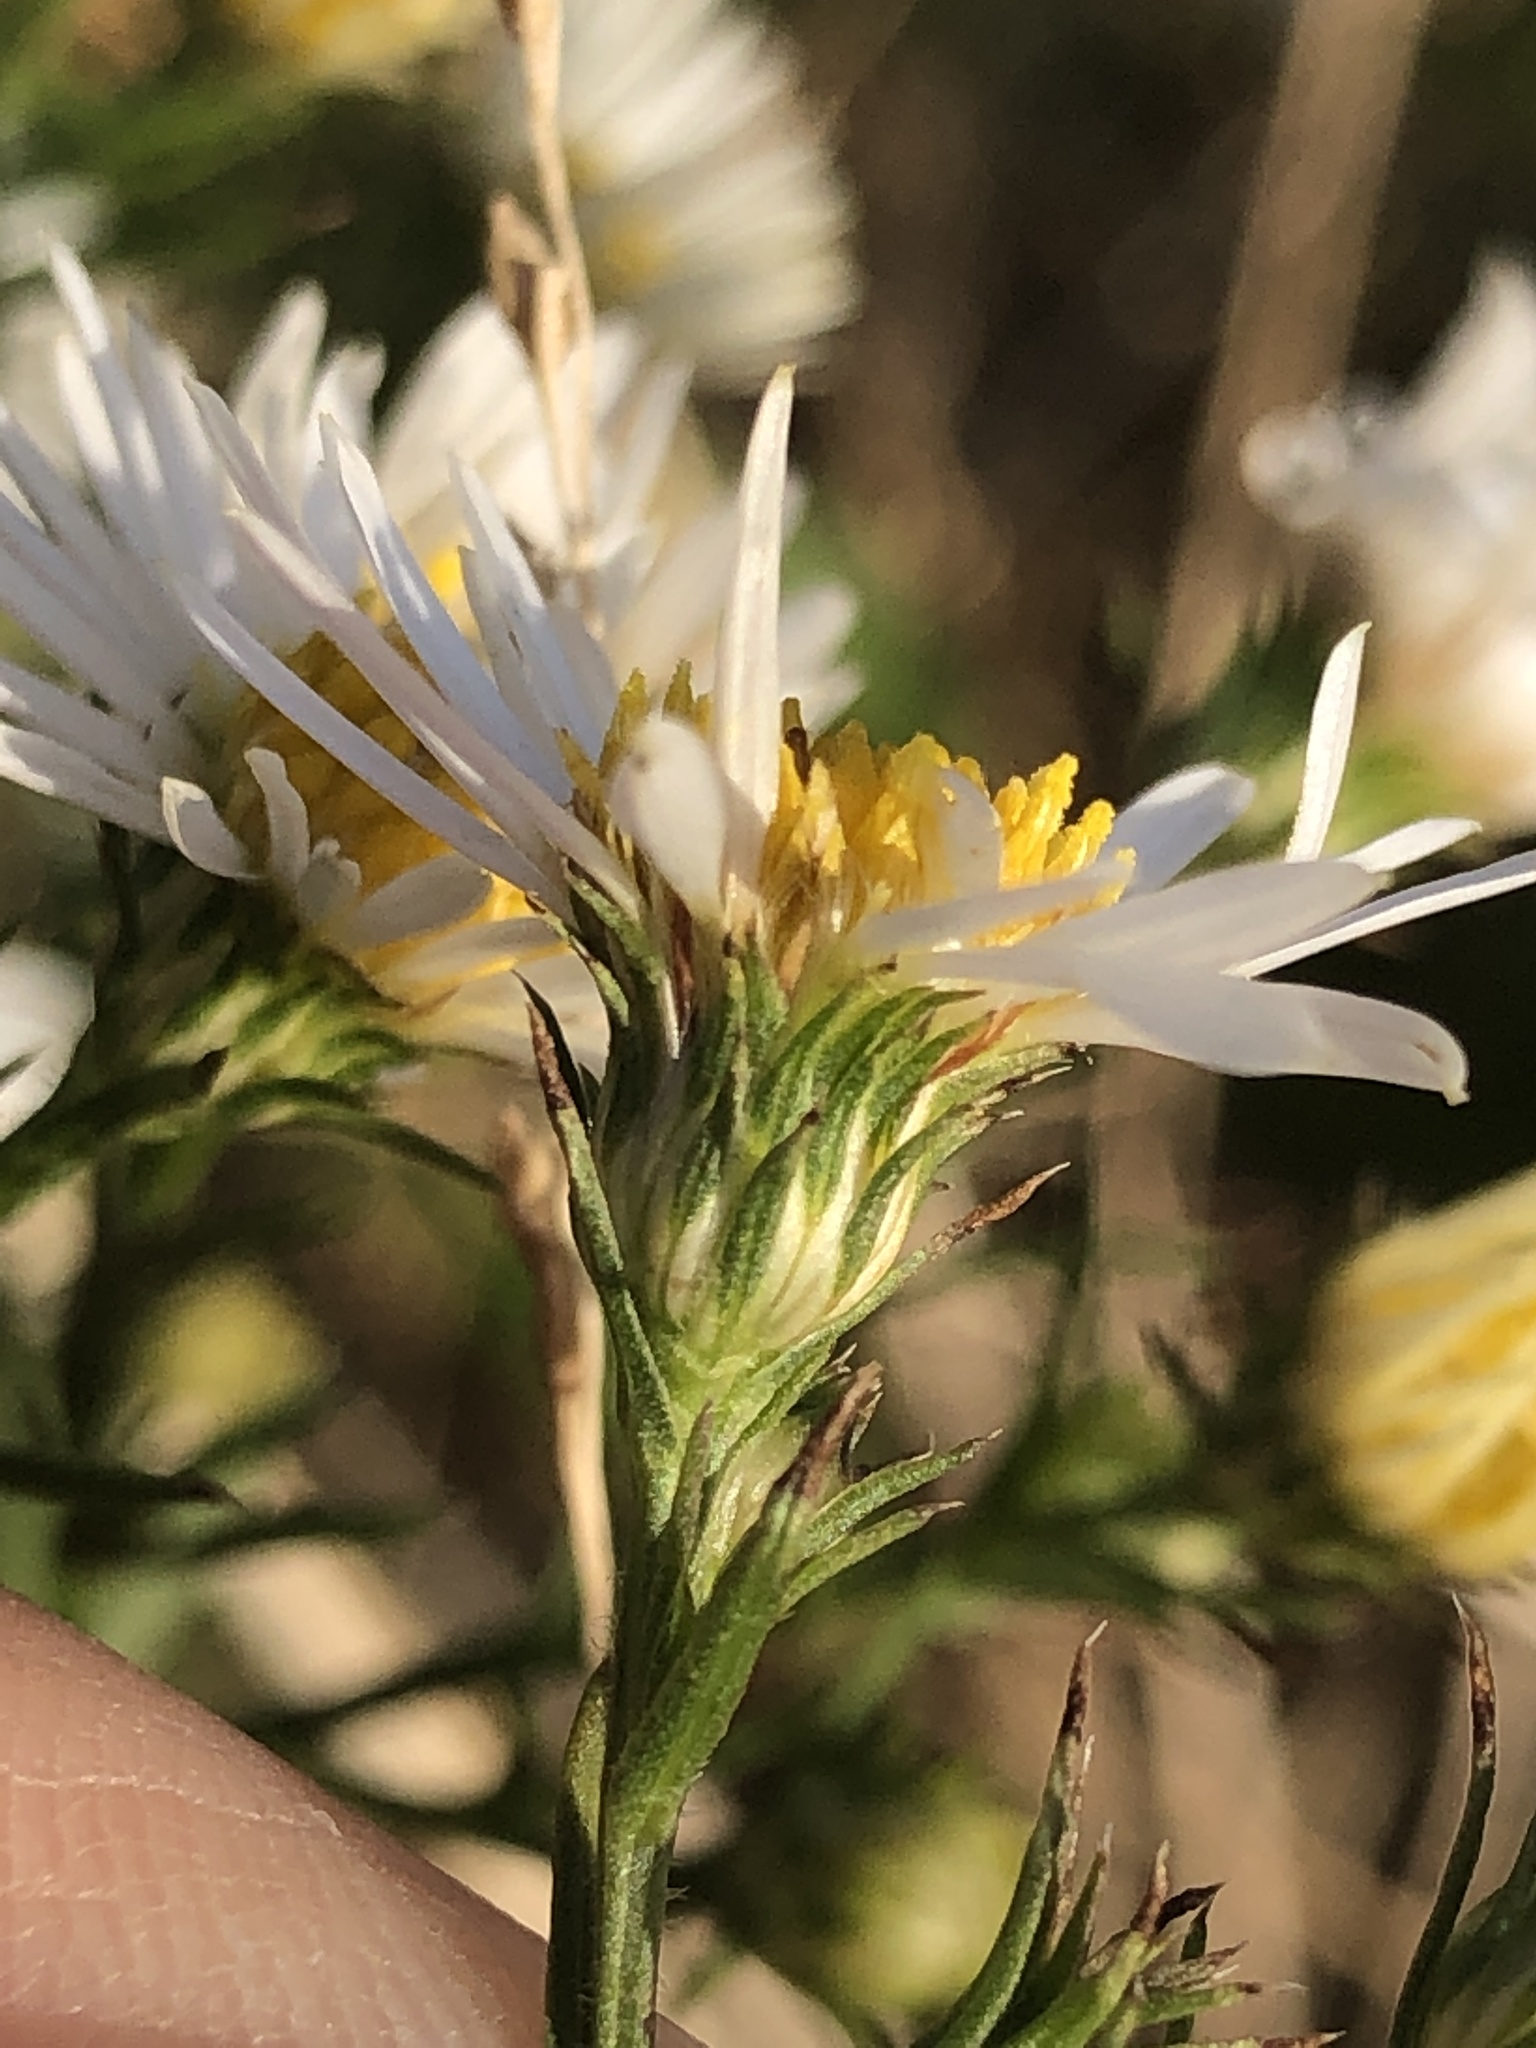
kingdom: Plantae
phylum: Tracheophyta
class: Magnoliopsida
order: Asterales
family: Asteraceae
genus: Symphyotrichum
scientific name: Symphyotrichum pilosum
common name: Awl aster
